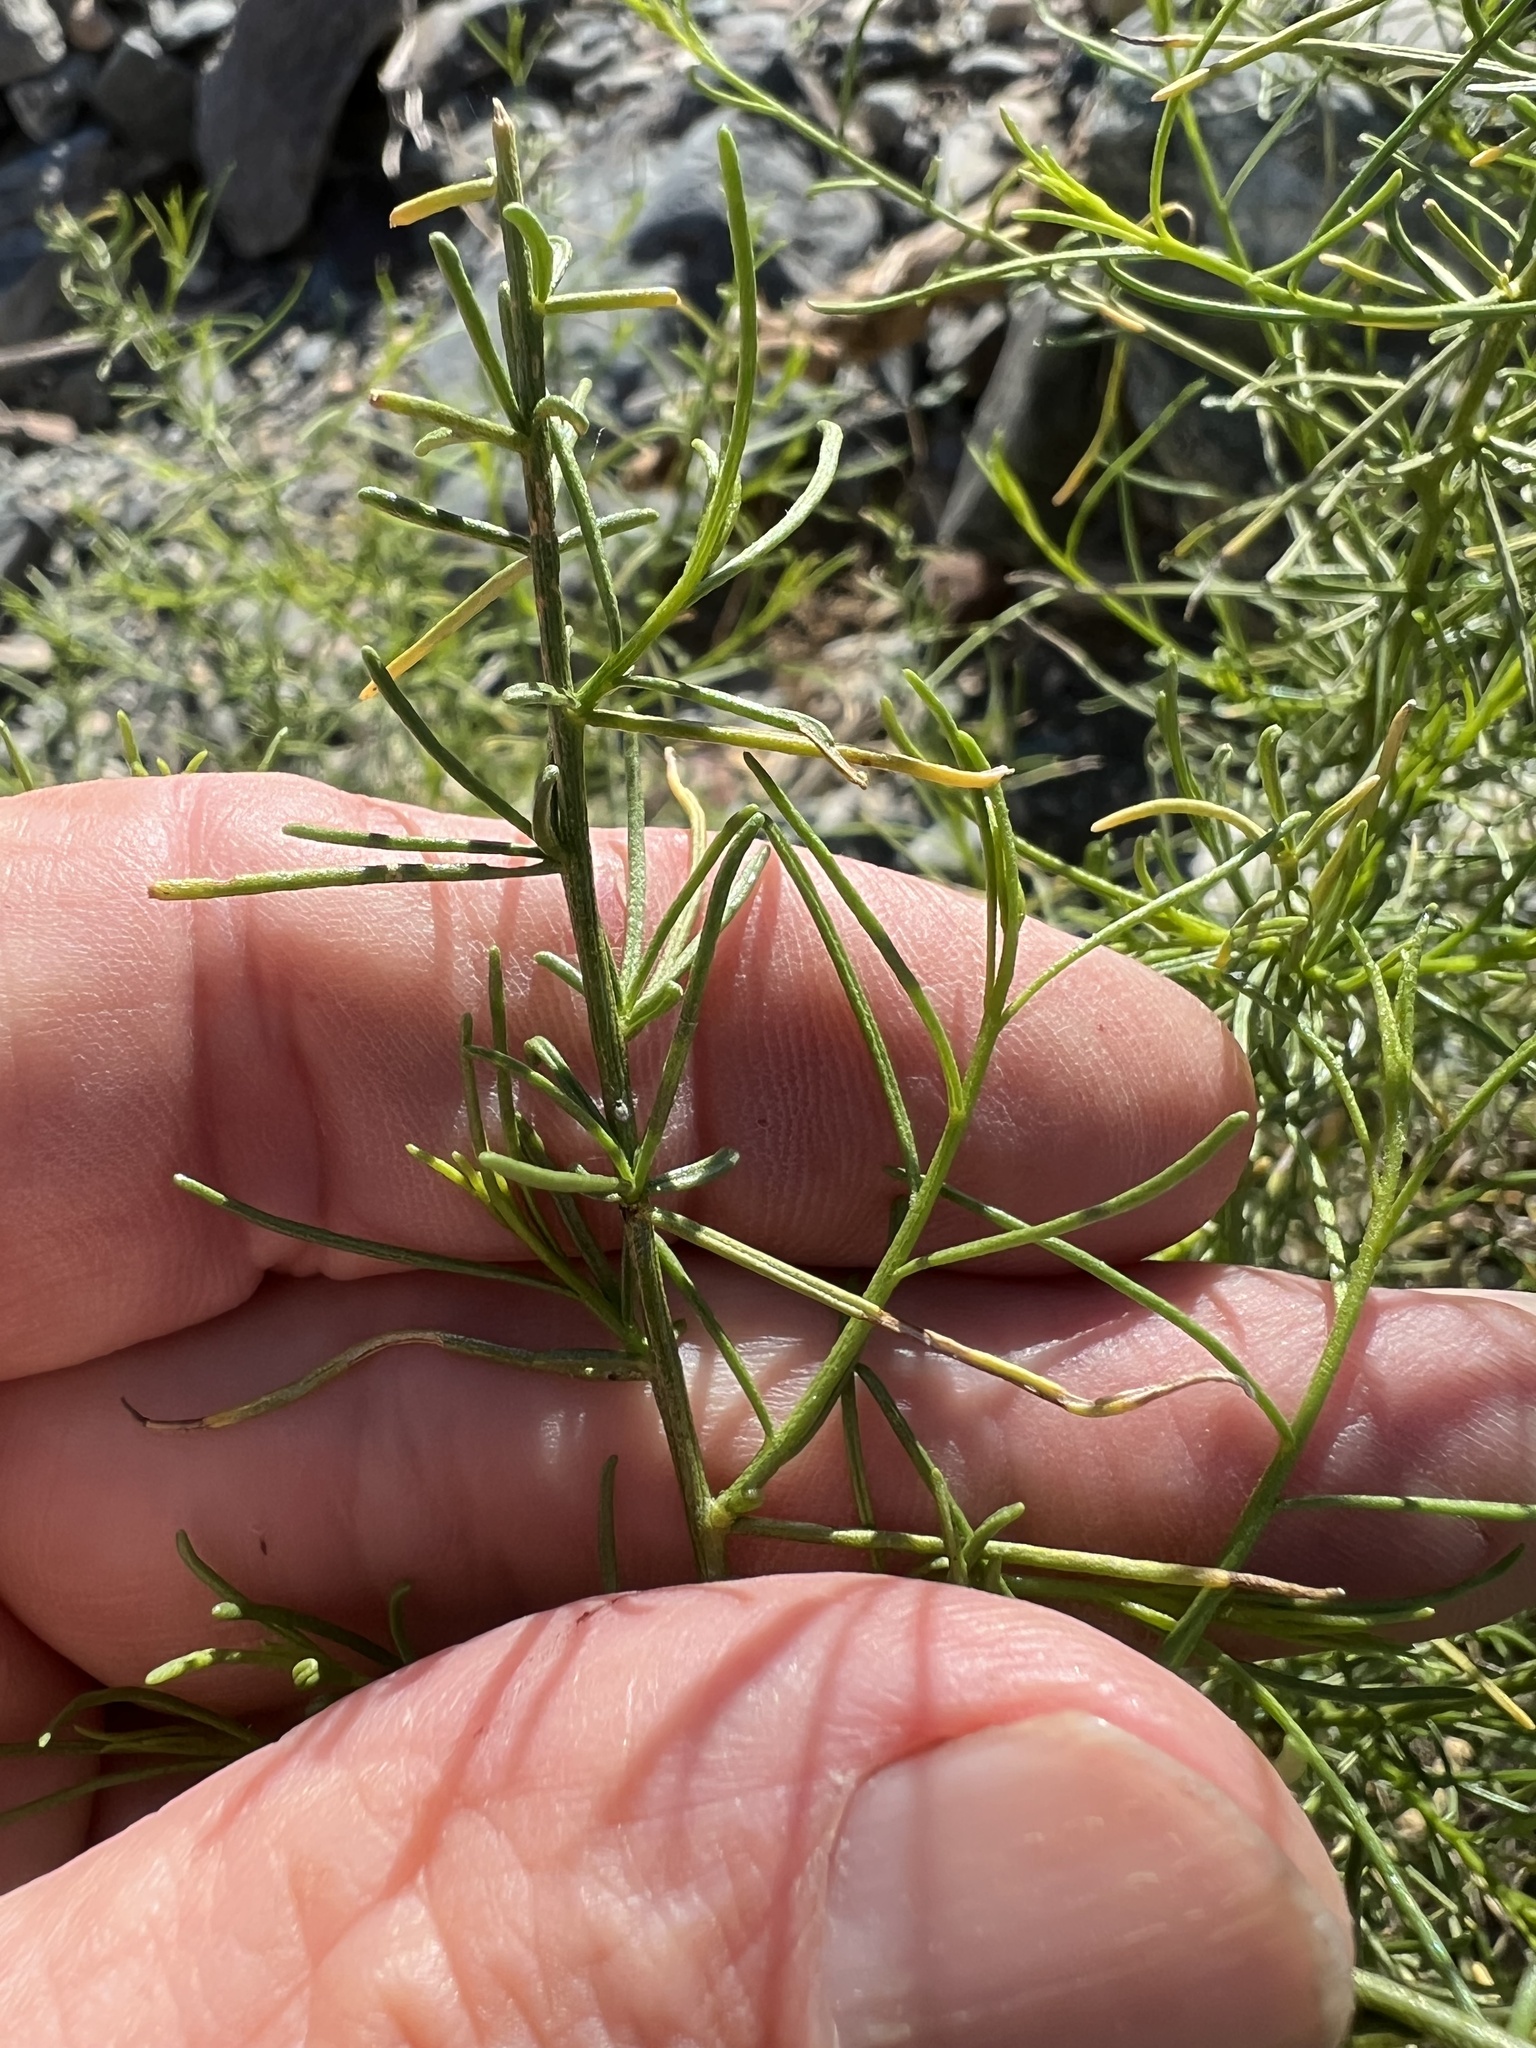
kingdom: Plantae
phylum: Tracheophyta
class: Magnoliopsida
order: Asterales
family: Asteraceae
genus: Ambrosia
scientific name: Ambrosia salsola
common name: Burrobrush
